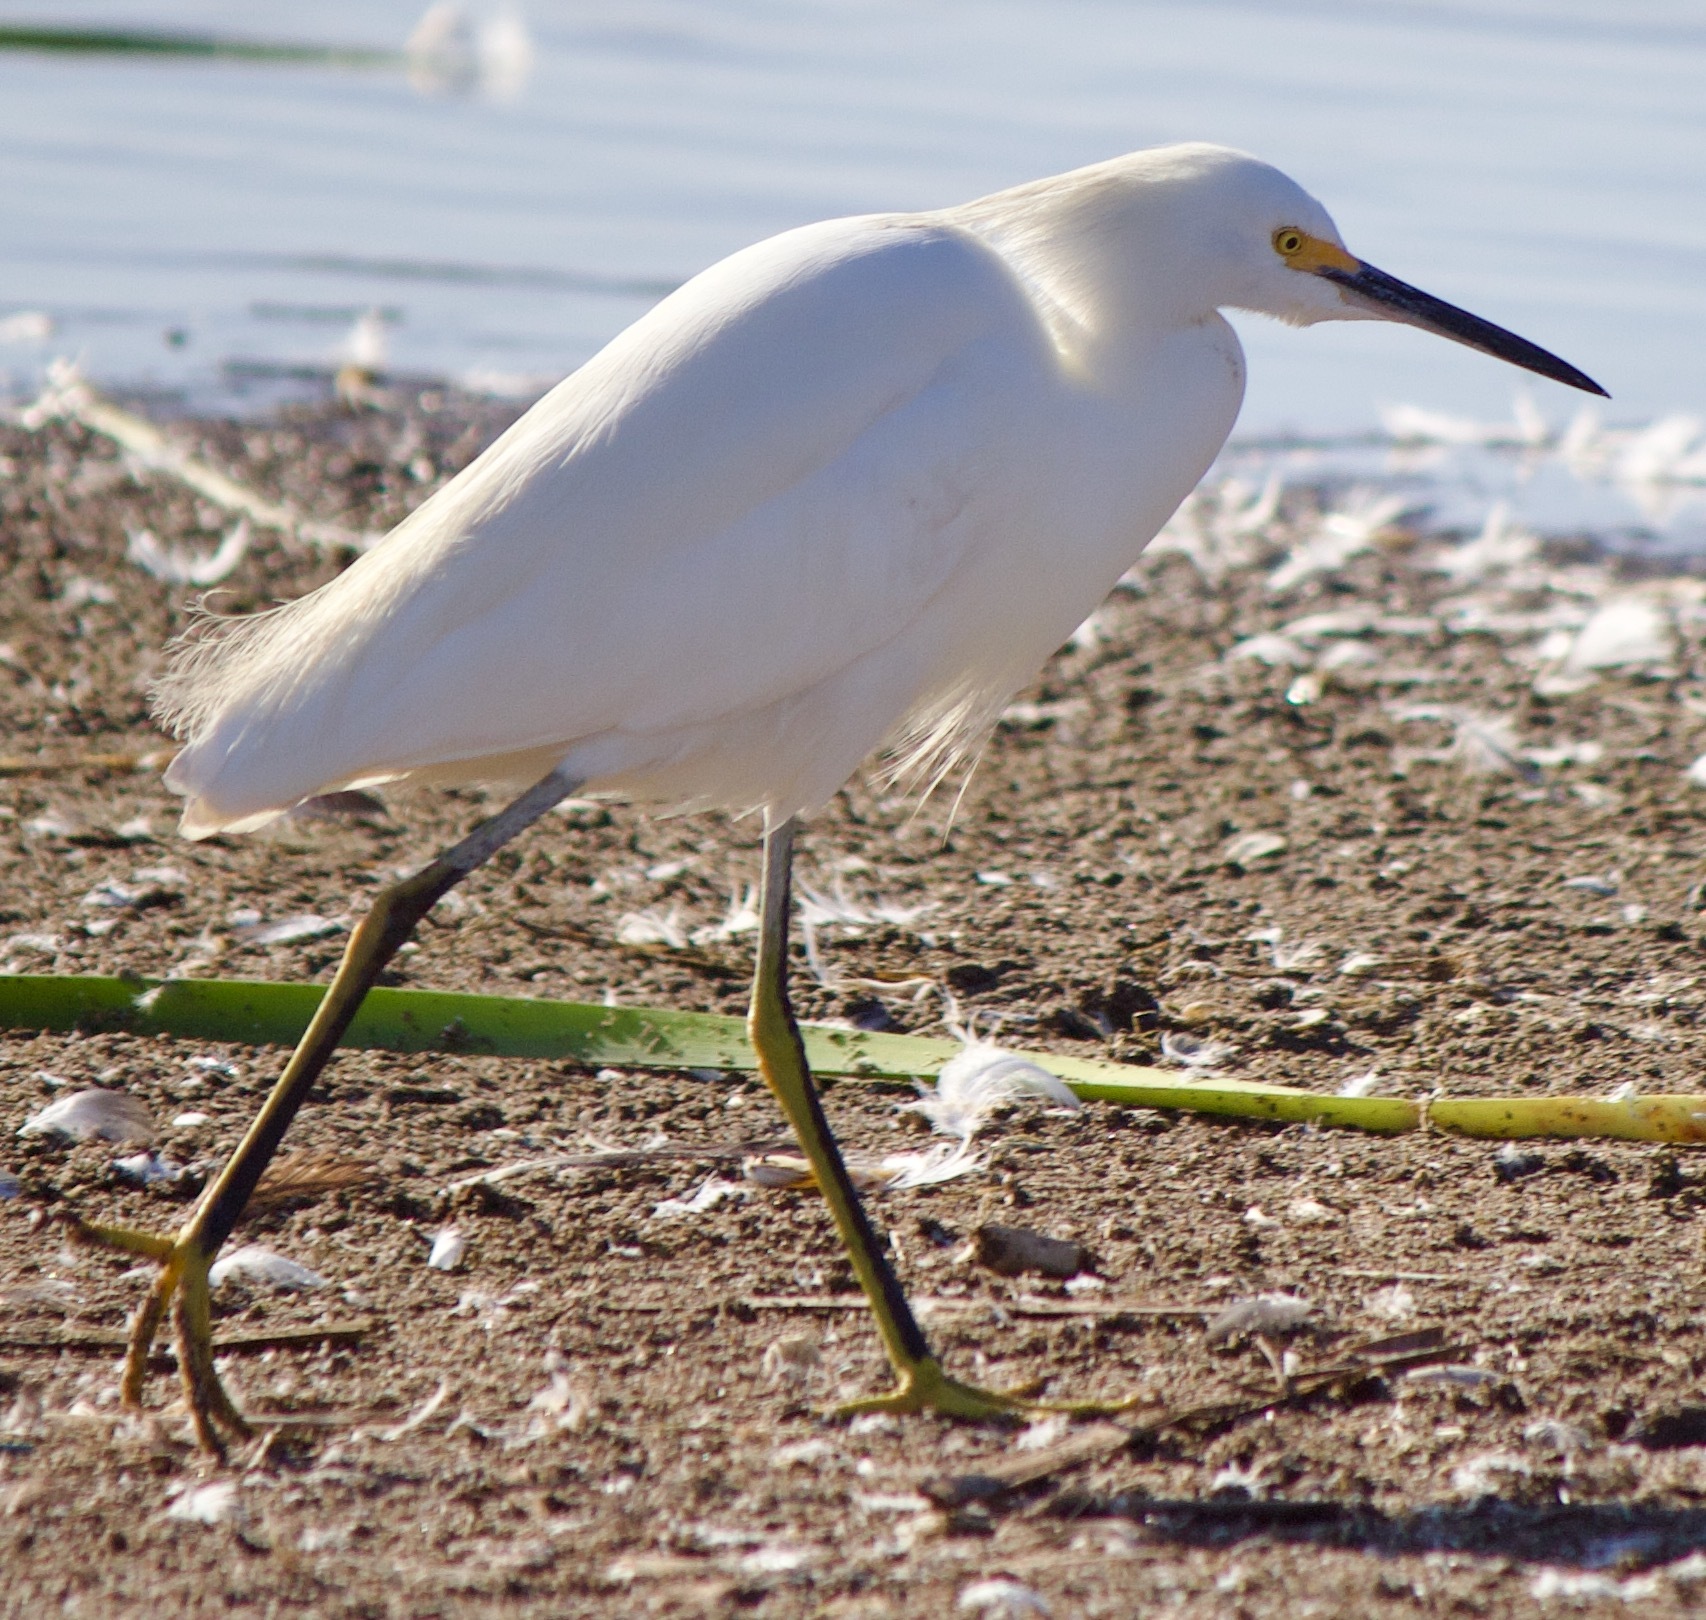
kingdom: Animalia
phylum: Chordata
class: Aves
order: Pelecaniformes
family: Ardeidae
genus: Egretta
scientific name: Egretta thula
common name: Snowy egret
